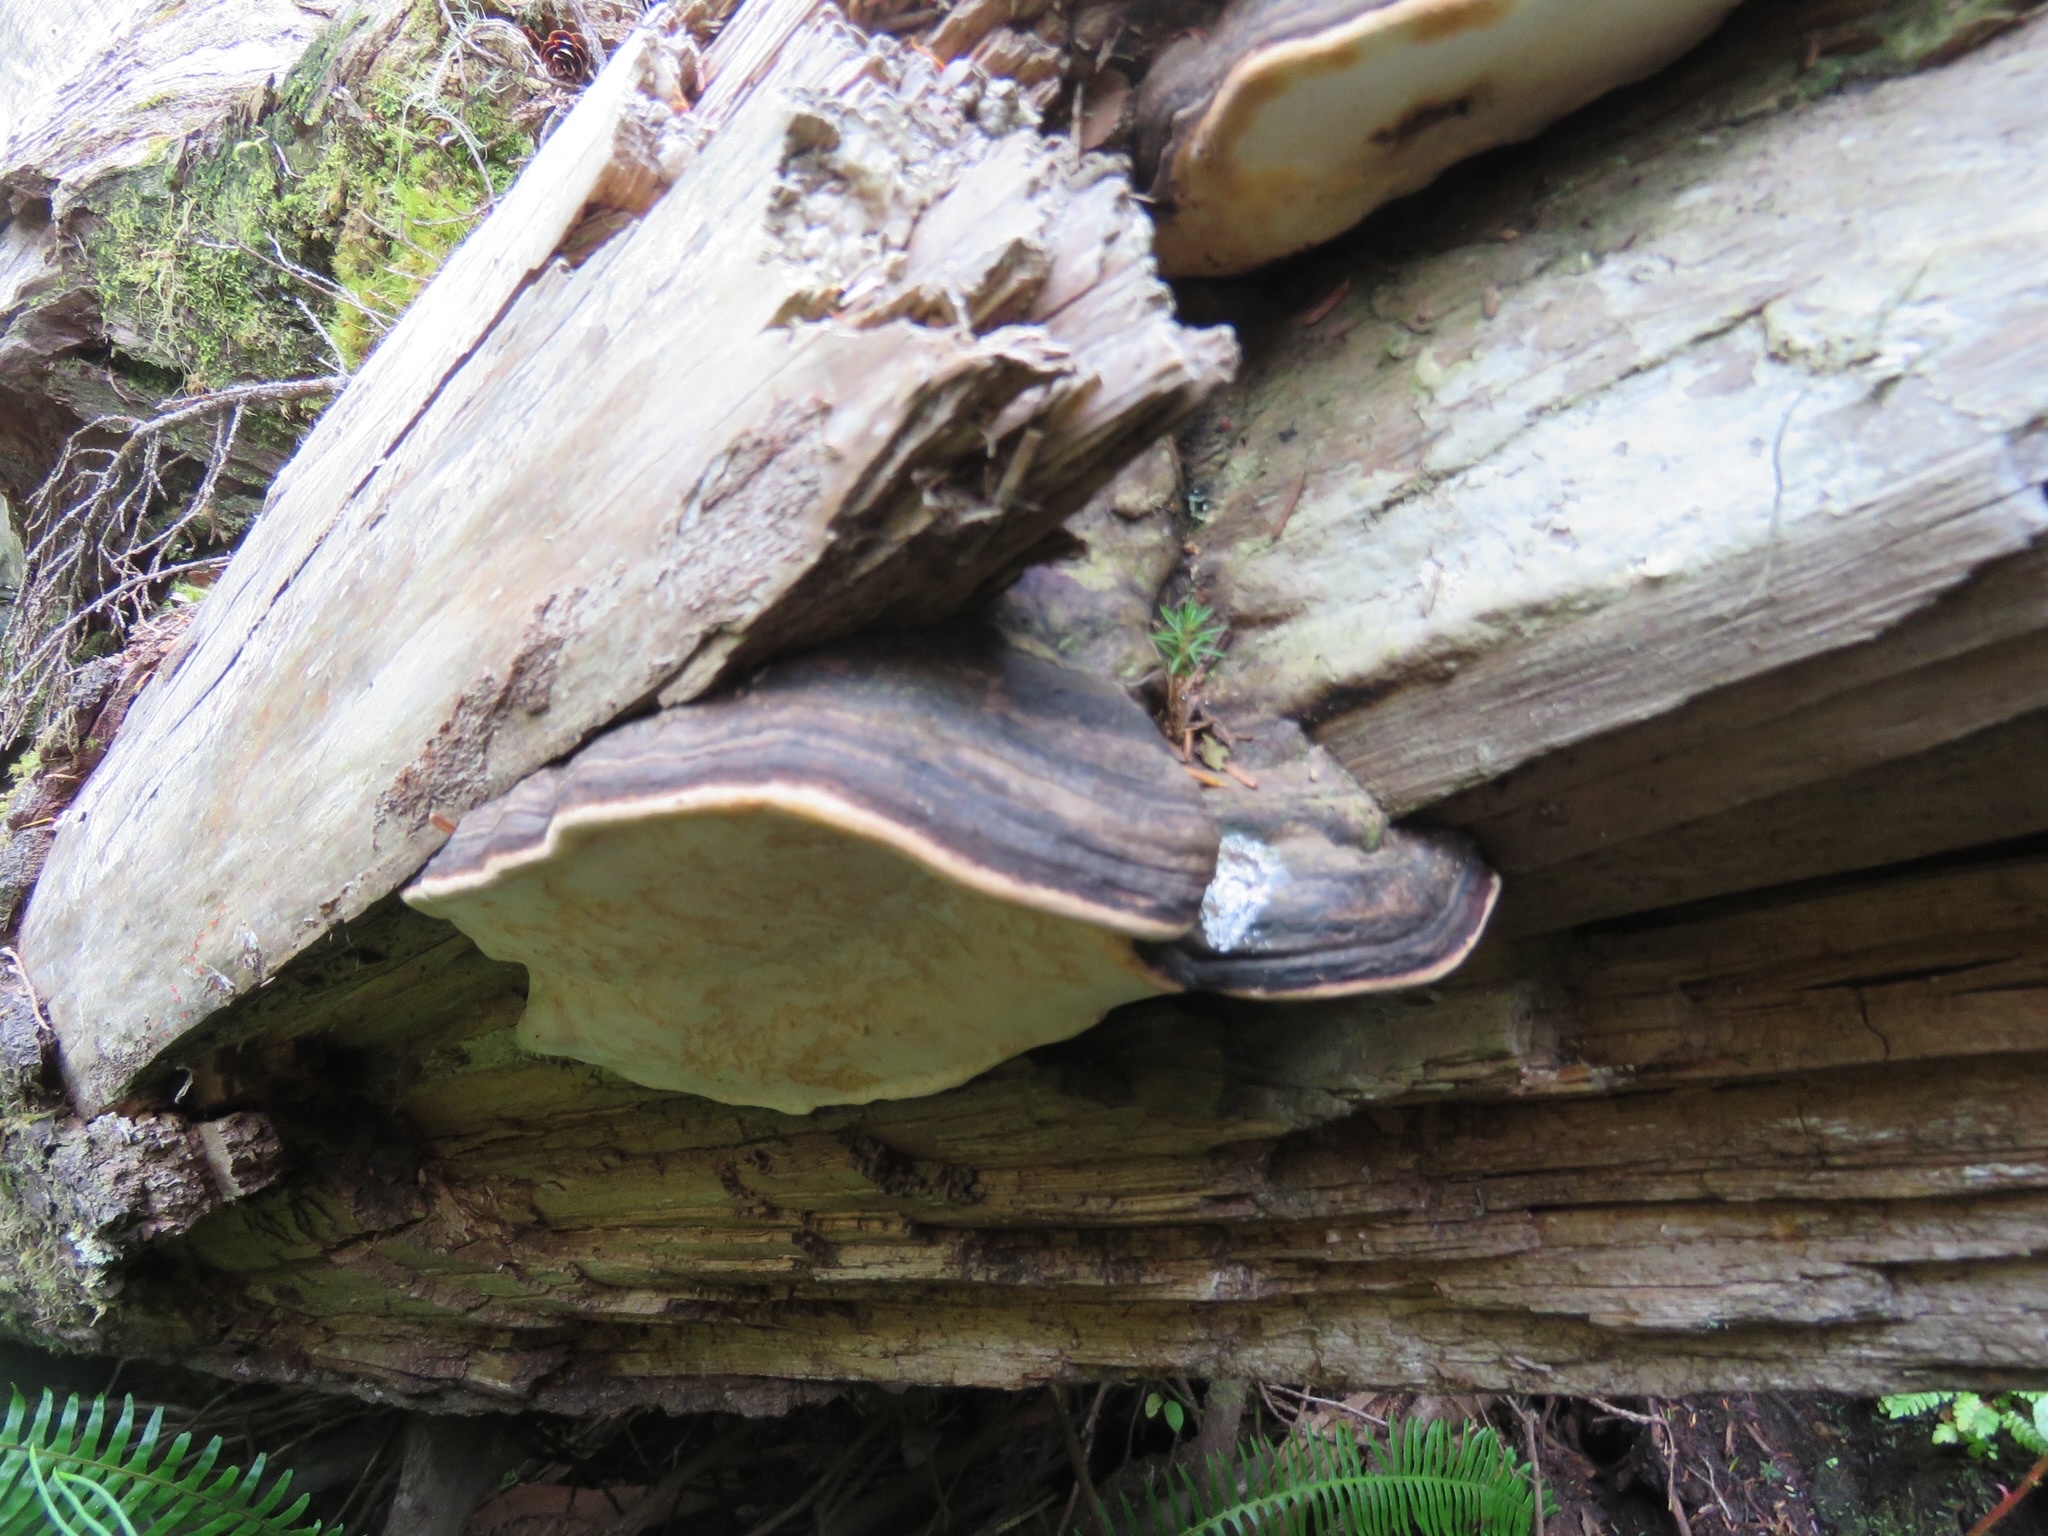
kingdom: Fungi
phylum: Basidiomycota
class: Agaricomycetes
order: Polyporales
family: Fomitopsidaceae
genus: Fomitopsis
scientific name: Fomitopsis mounceae
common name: Northern red belt
